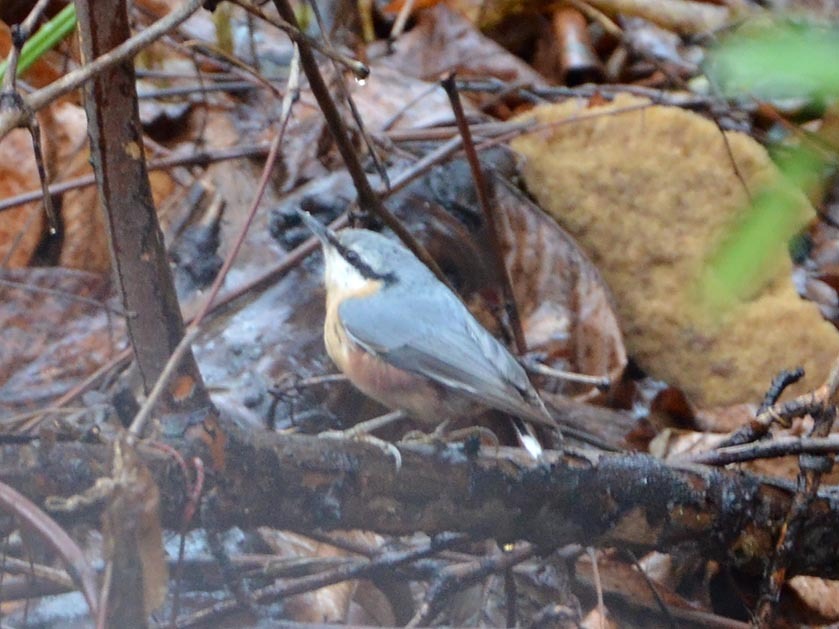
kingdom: Animalia
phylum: Chordata
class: Aves
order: Passeriformes
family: Sittidae
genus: Sitta
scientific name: Sitta europaea
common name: Eurasian nuthatch
